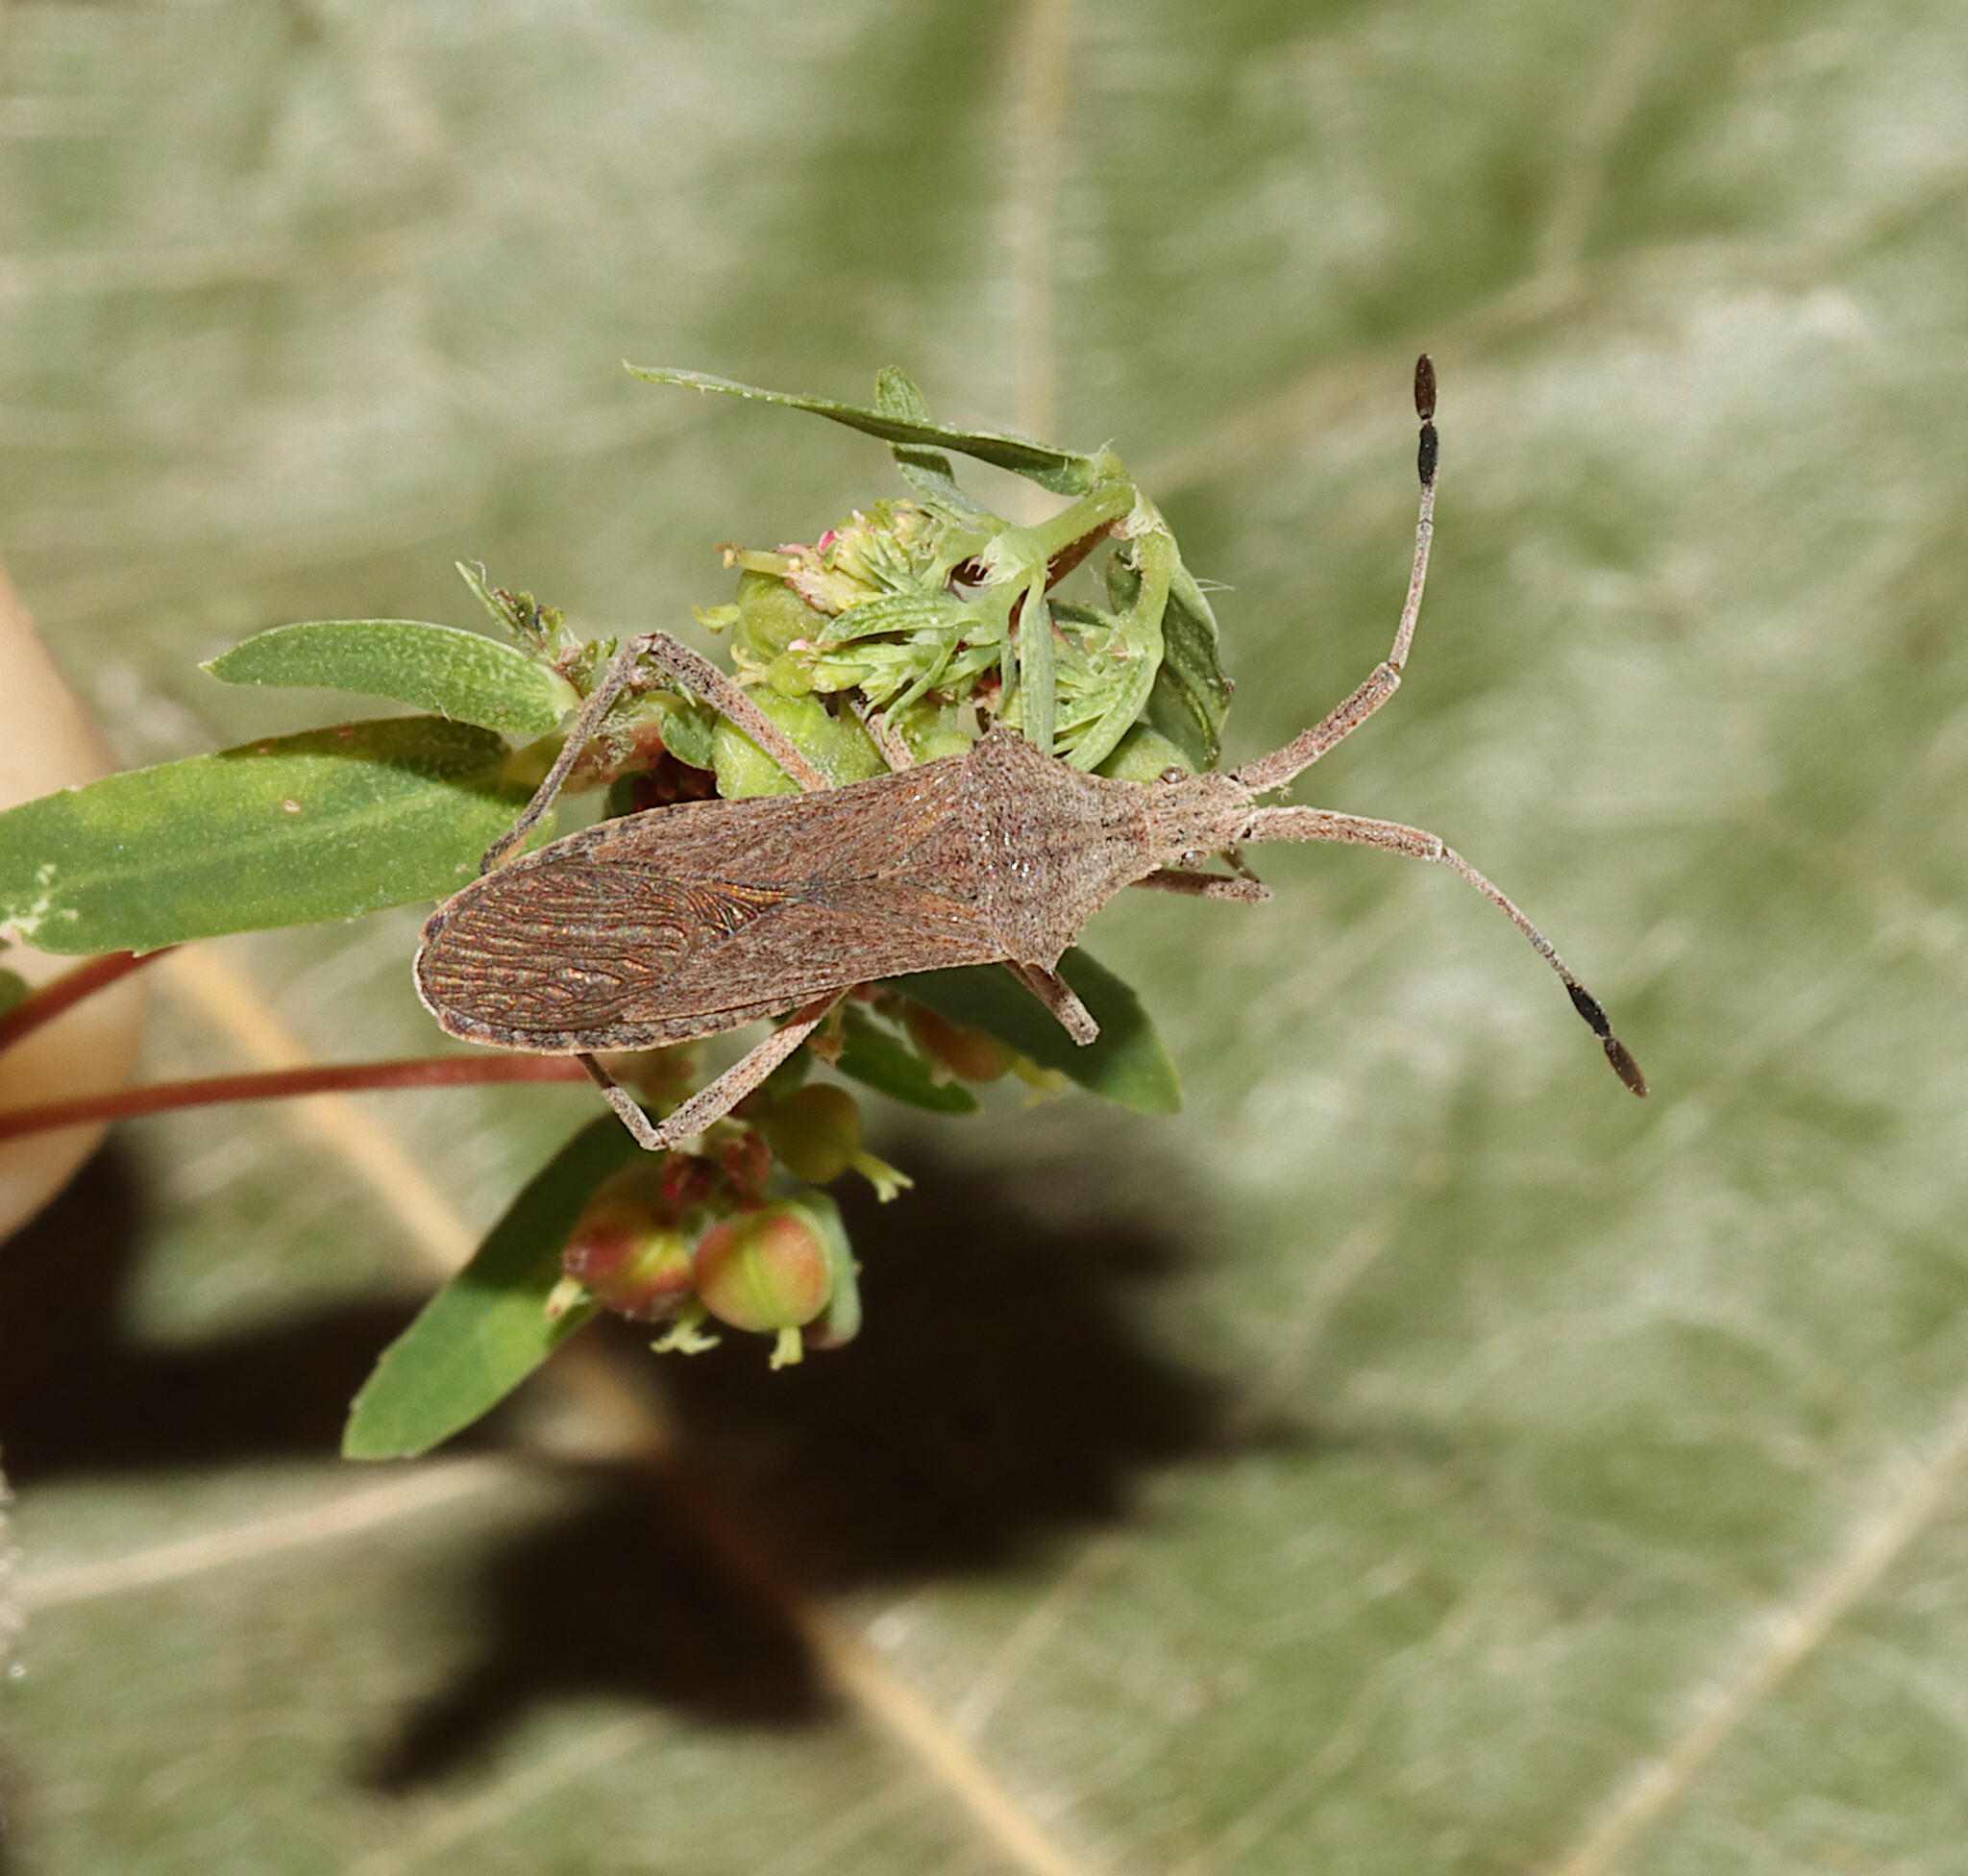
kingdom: Plantae
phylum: Tracheophyta
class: Magnoliopsida
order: Malpighiales
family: Euphorbiaceae
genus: Euphorbia
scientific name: Euphorbia nutans
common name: Eyebane
